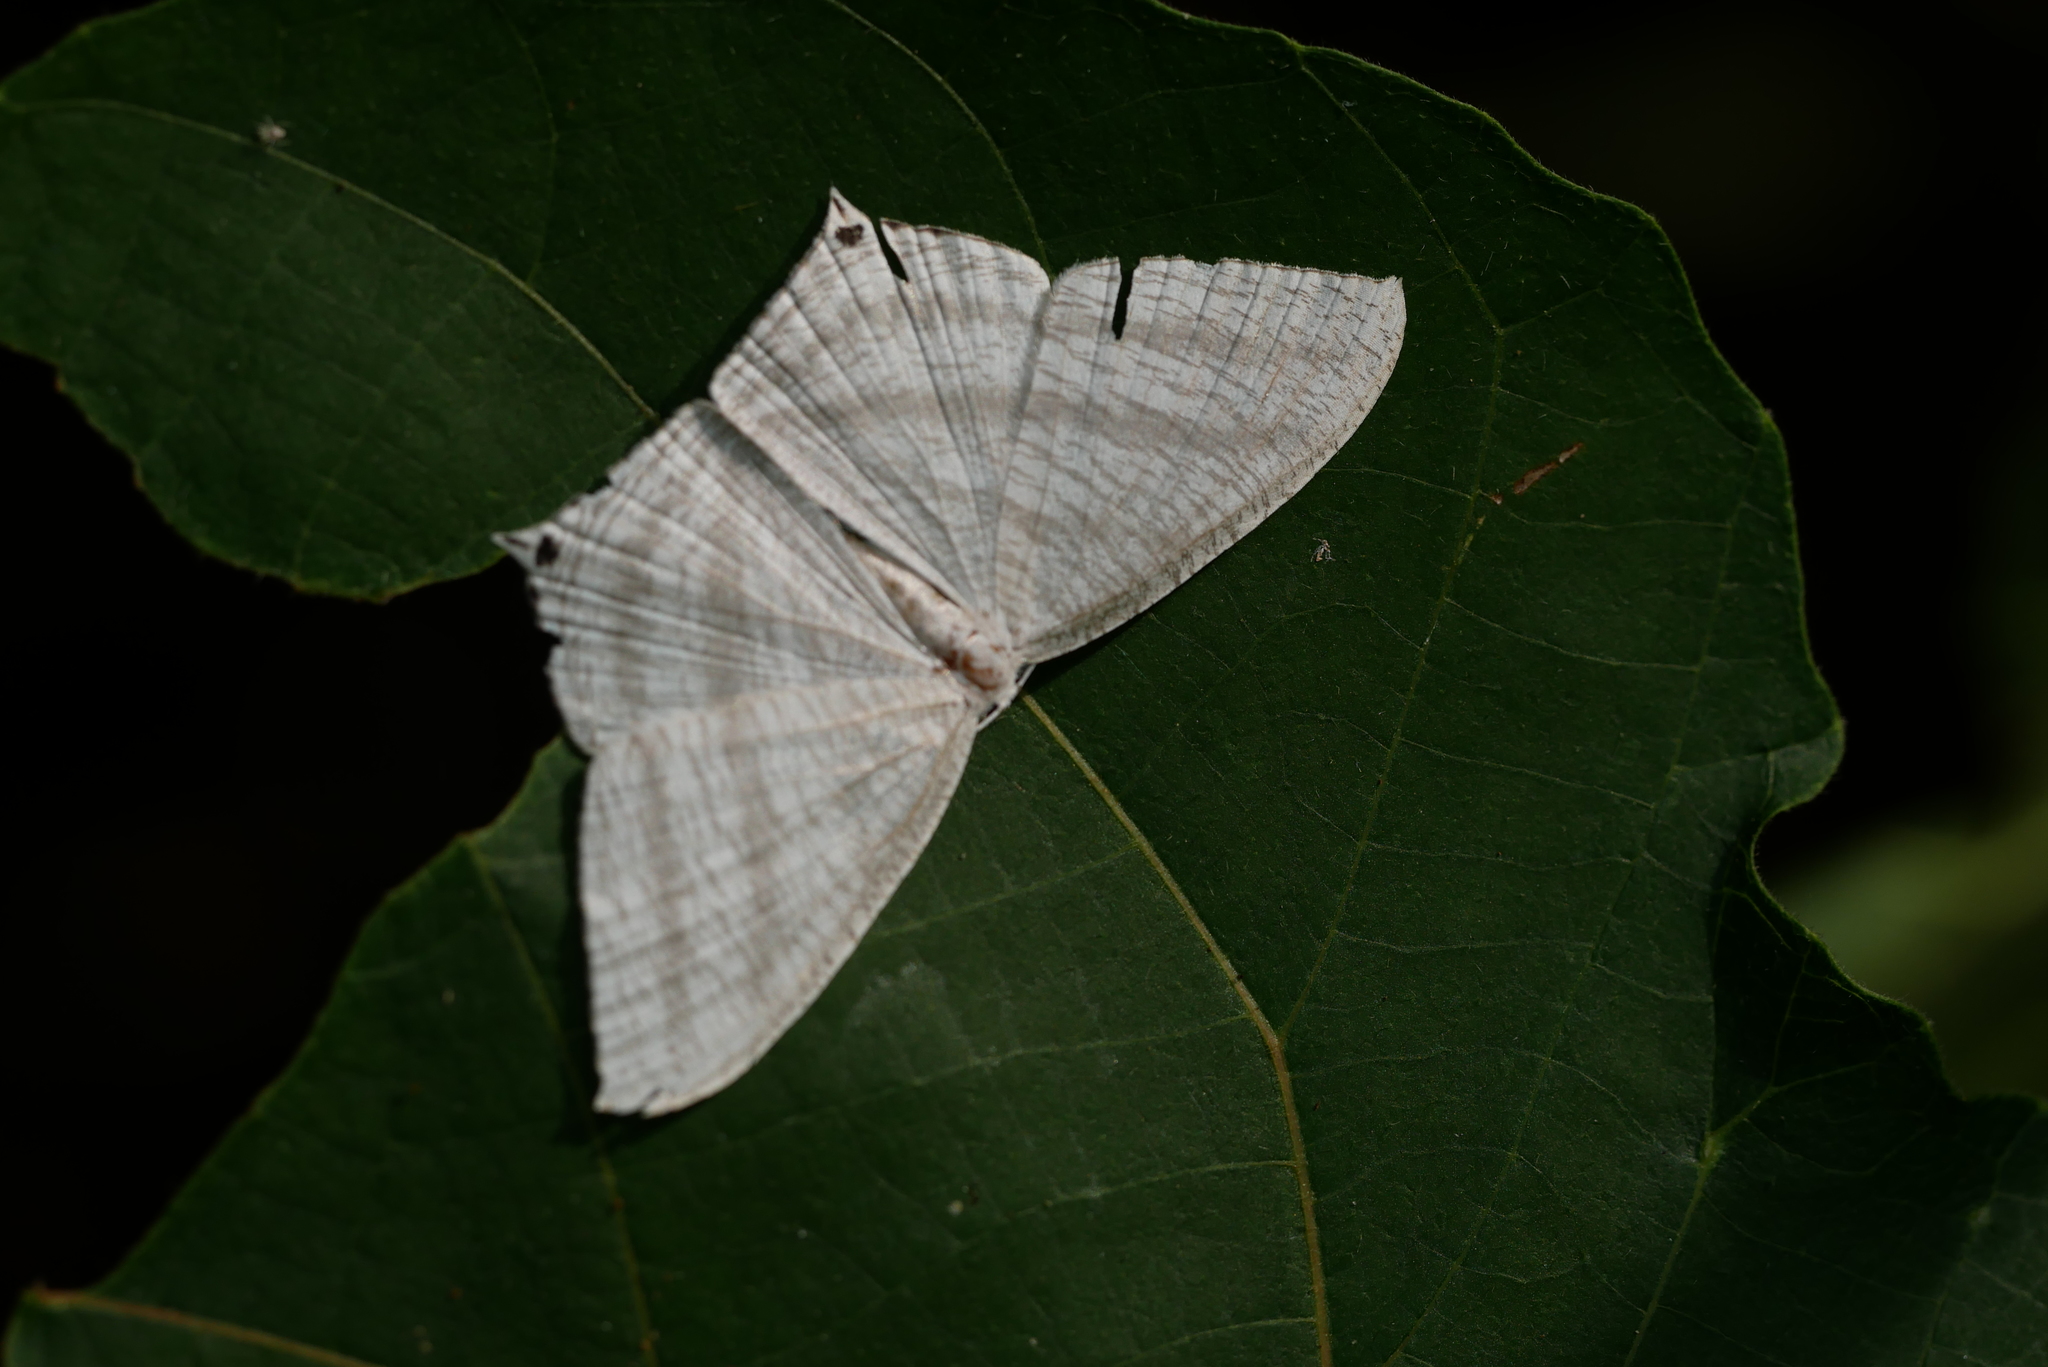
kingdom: Animalia
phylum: Arthropoda
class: Insecta
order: Lepidoptera
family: Uraniidae
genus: Micronia
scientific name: Micronia aculeata
